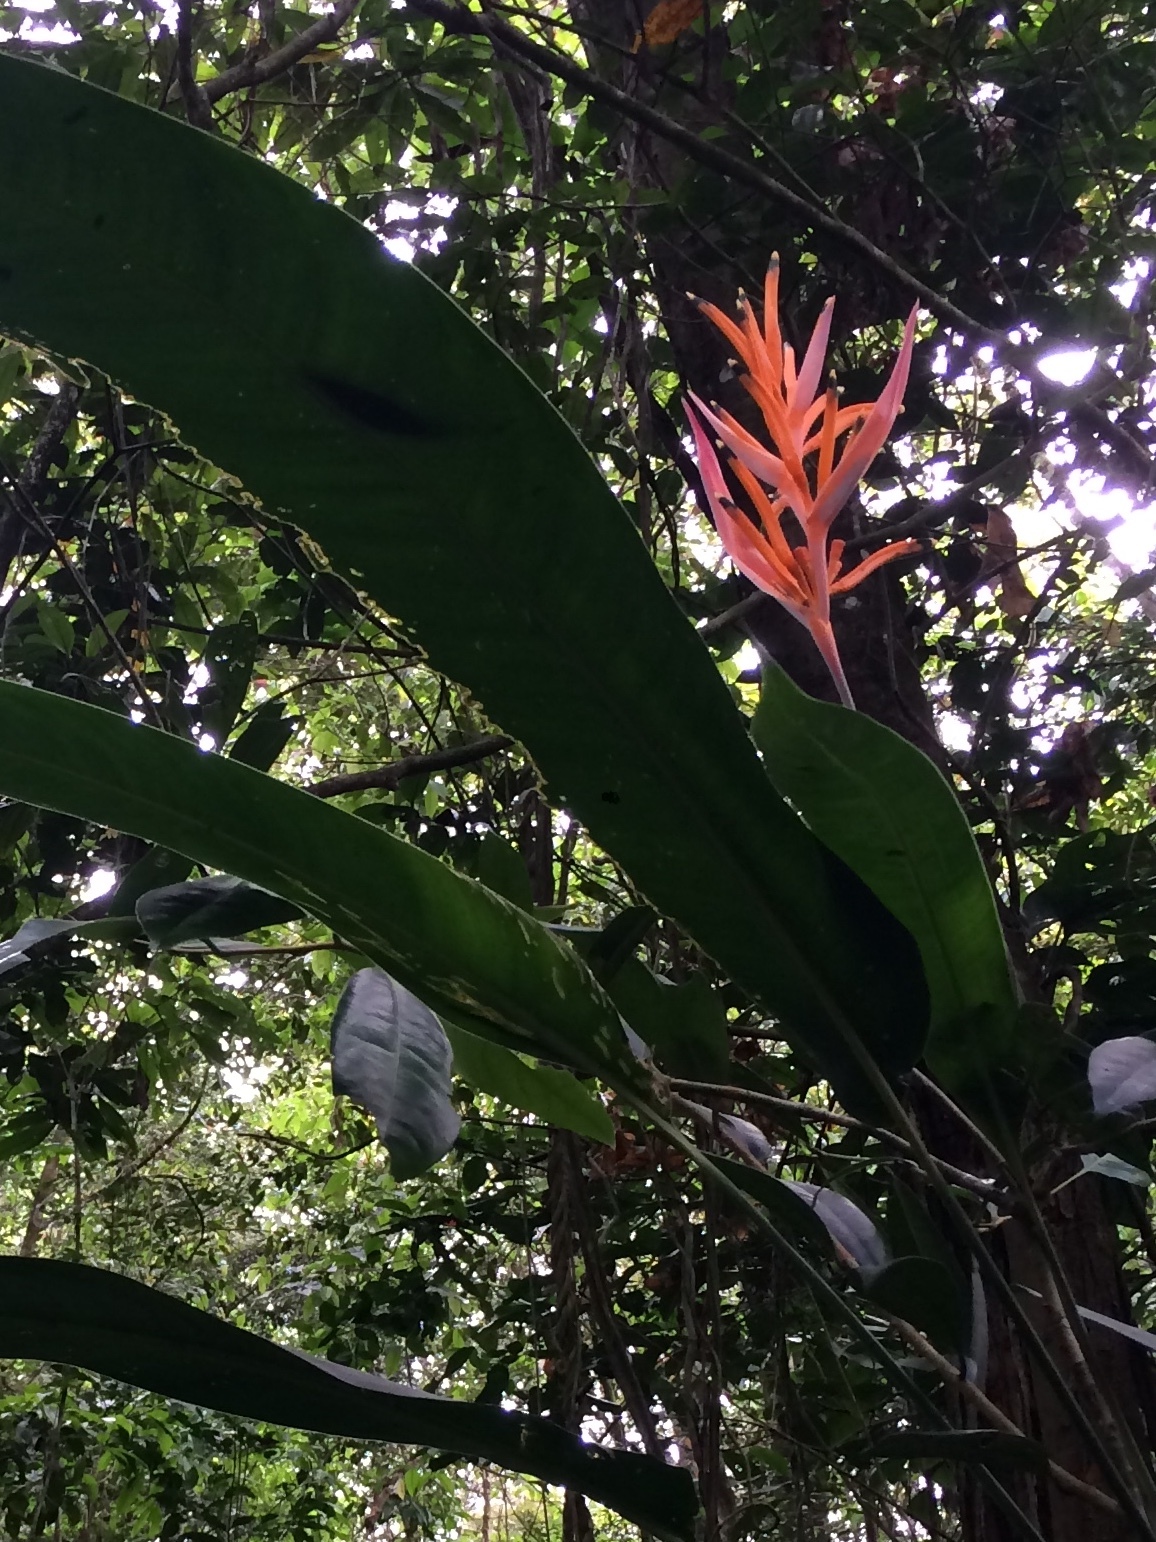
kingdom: Plantae
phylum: Tracheophyta
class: Liliopsida
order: Zingiberales
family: Heliconiaceae
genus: Heliconia
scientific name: Heliconia psittacorum
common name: Parrot's-flower
